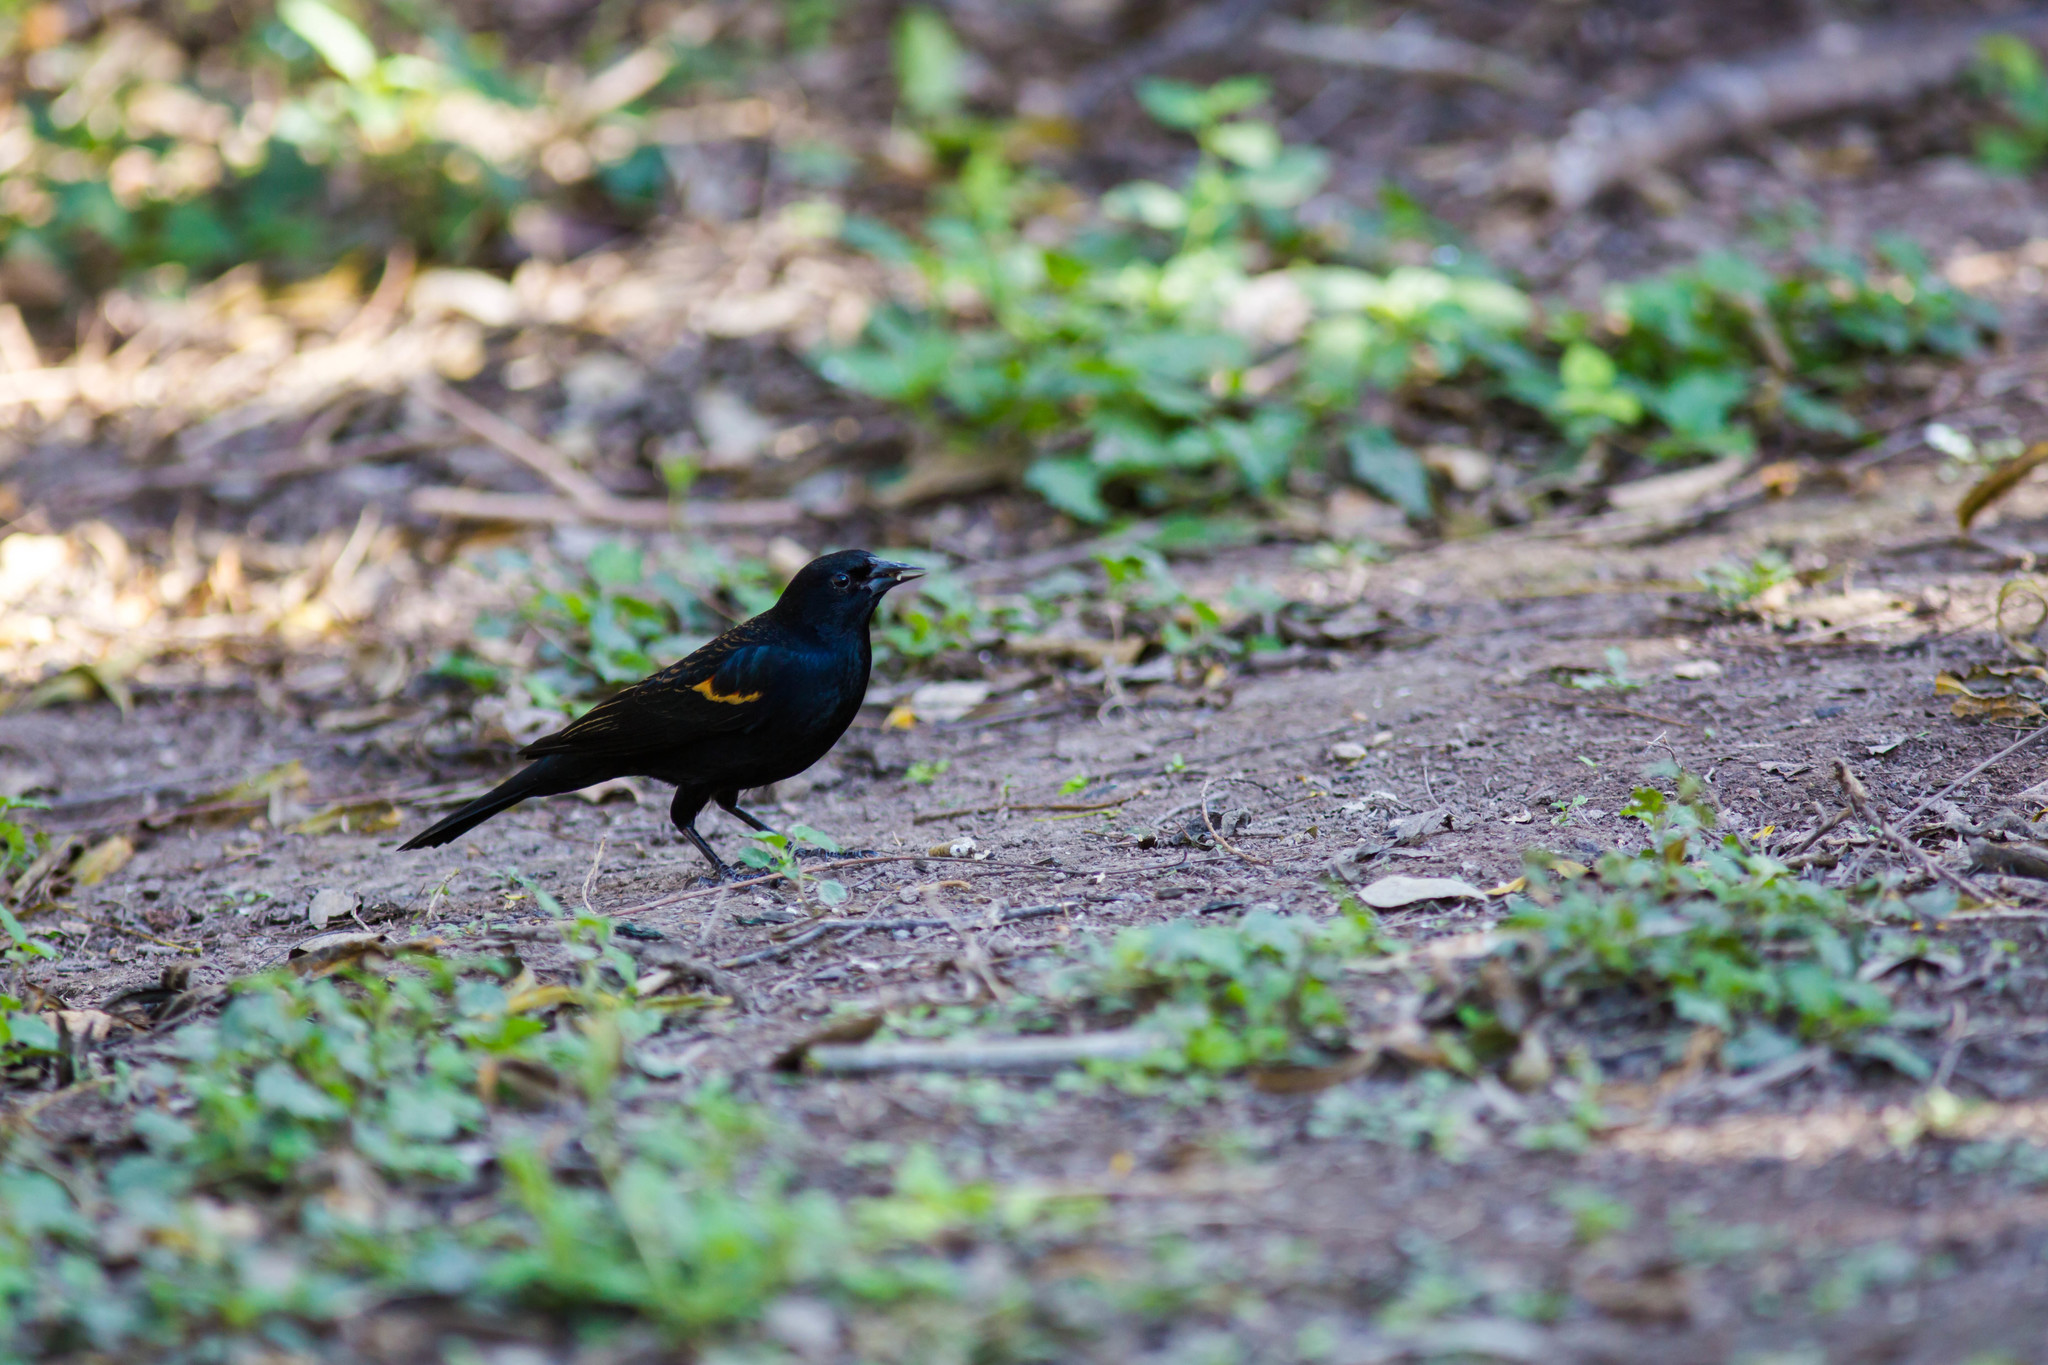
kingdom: Animalia
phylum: Chordata
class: Aves
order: Passeriformes
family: Icteridae
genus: Agelaius
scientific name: Agelaius phoeniceus
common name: Red-winged blackbird
